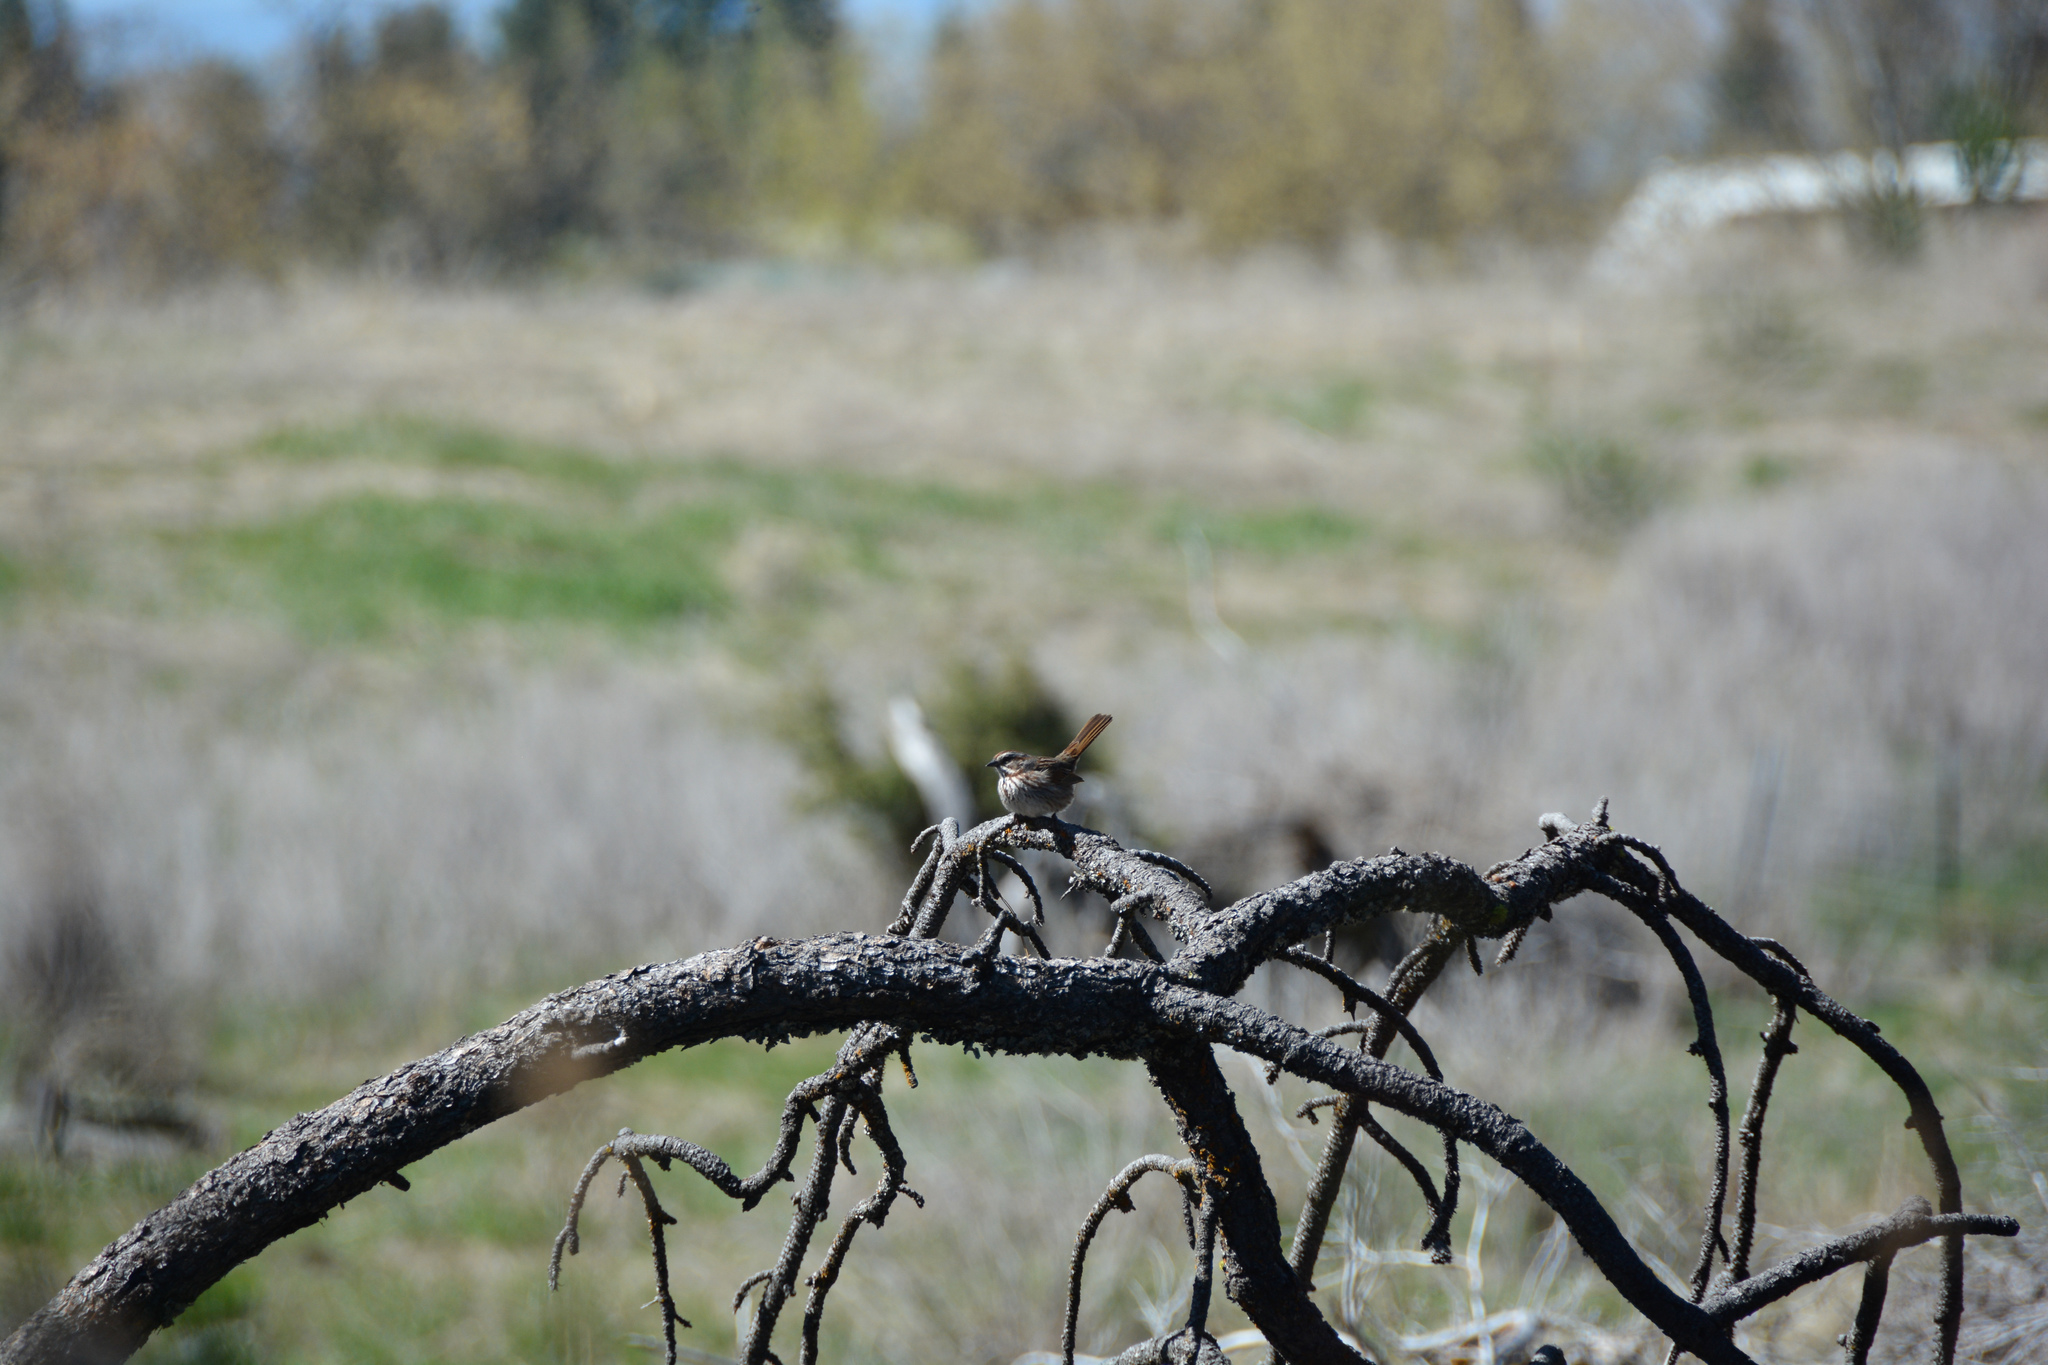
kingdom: Animalia
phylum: Chordata
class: Aves
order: Passeriformes
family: Passerellidae
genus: Melospiza
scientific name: Melospiza melodia
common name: Song sparrow
